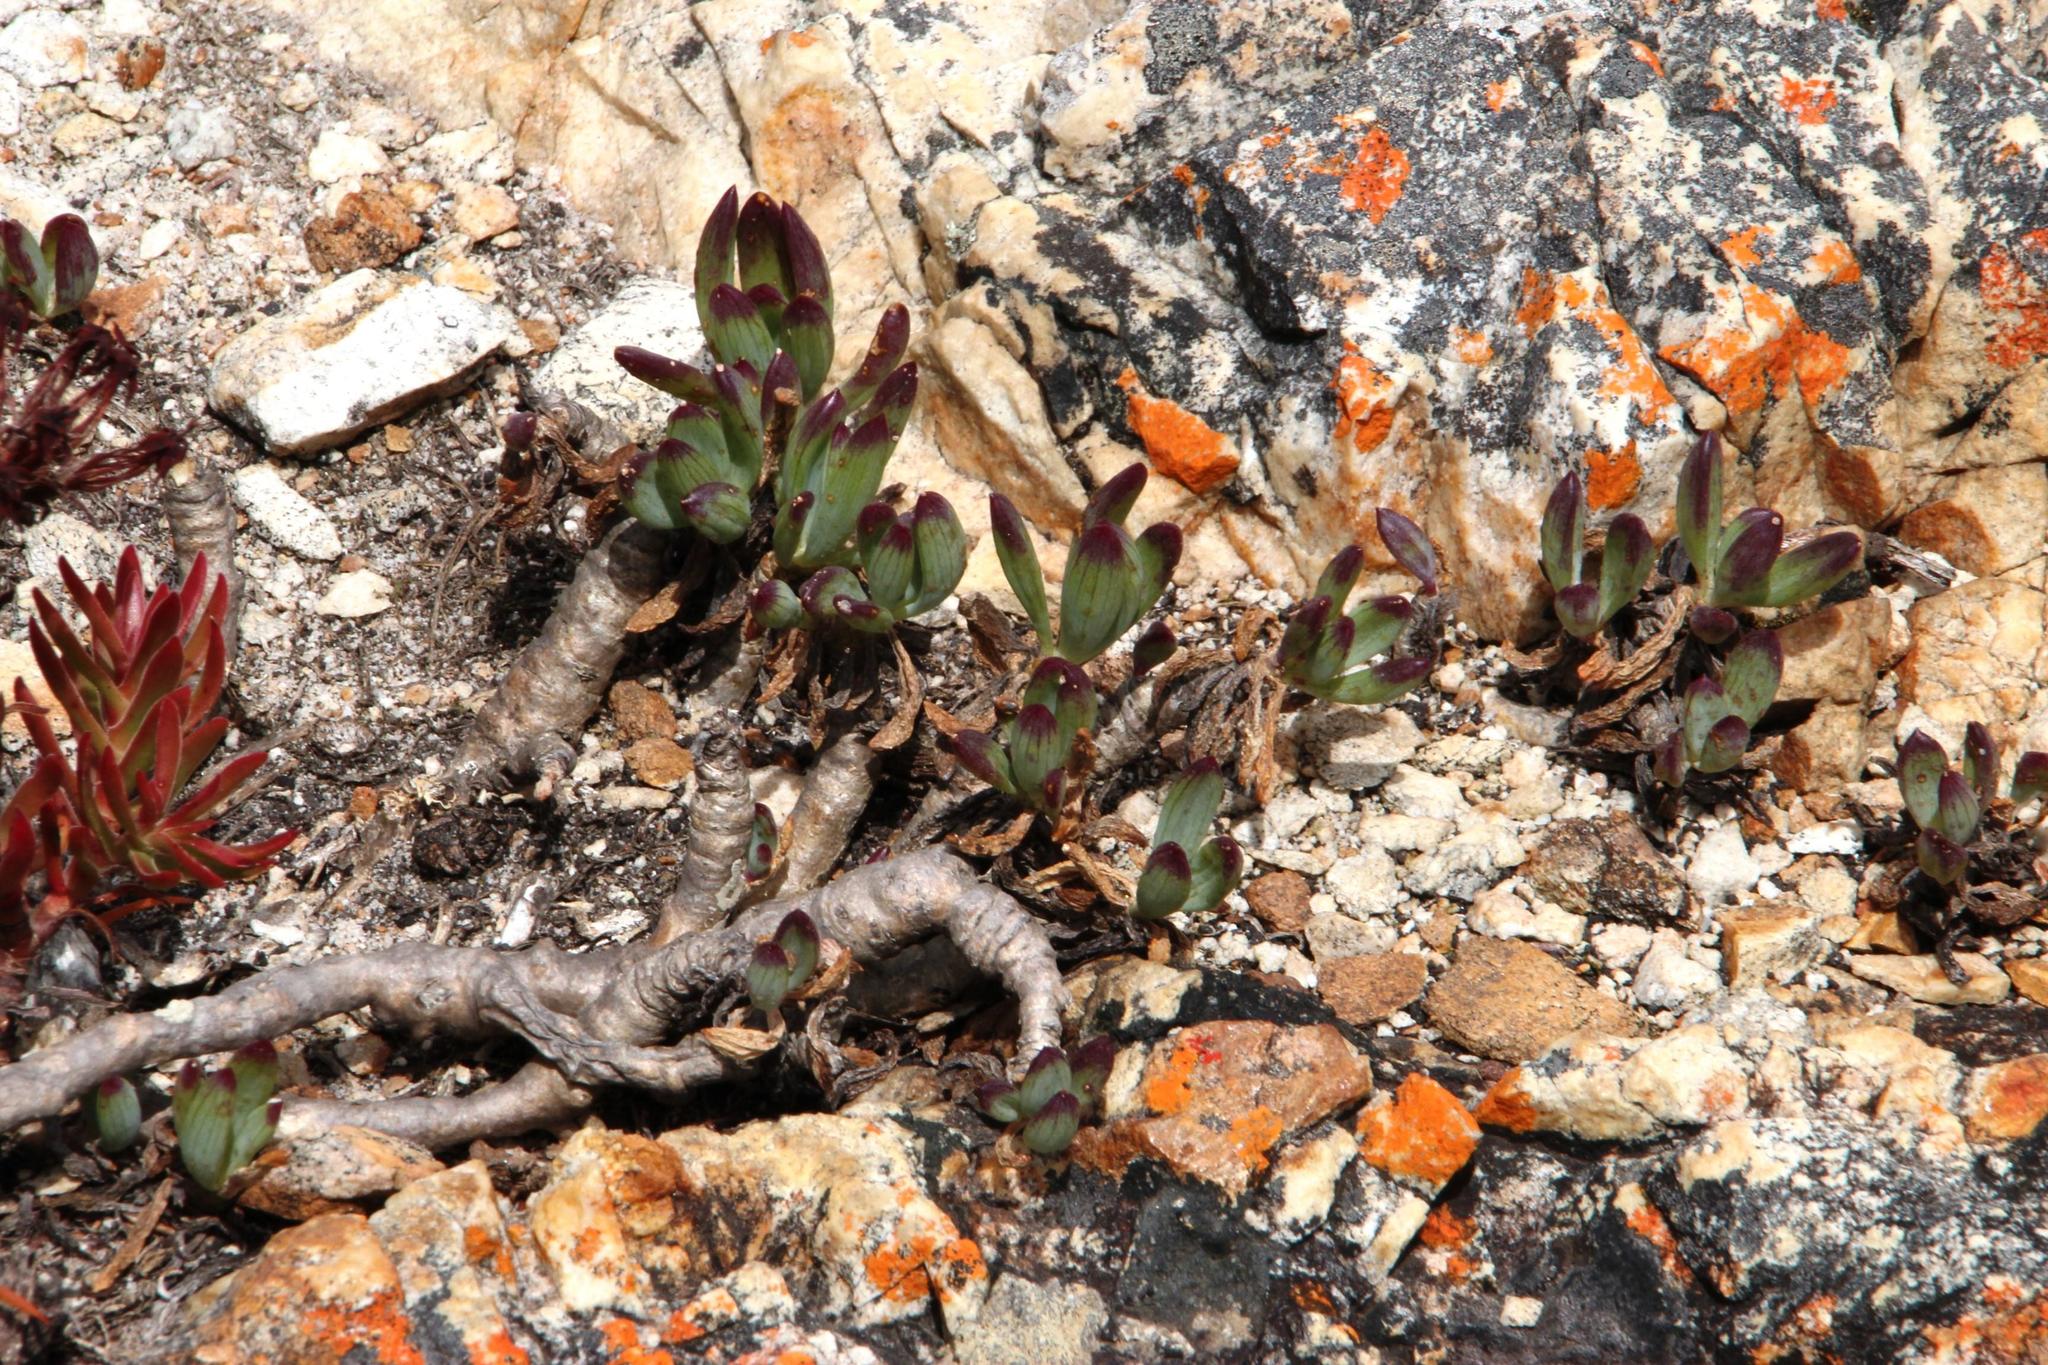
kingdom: Plantae
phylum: Tracheophyta
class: Magnoliopsida
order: Asterales
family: Asteraceae
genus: Curio
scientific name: Curio crassulifolius
